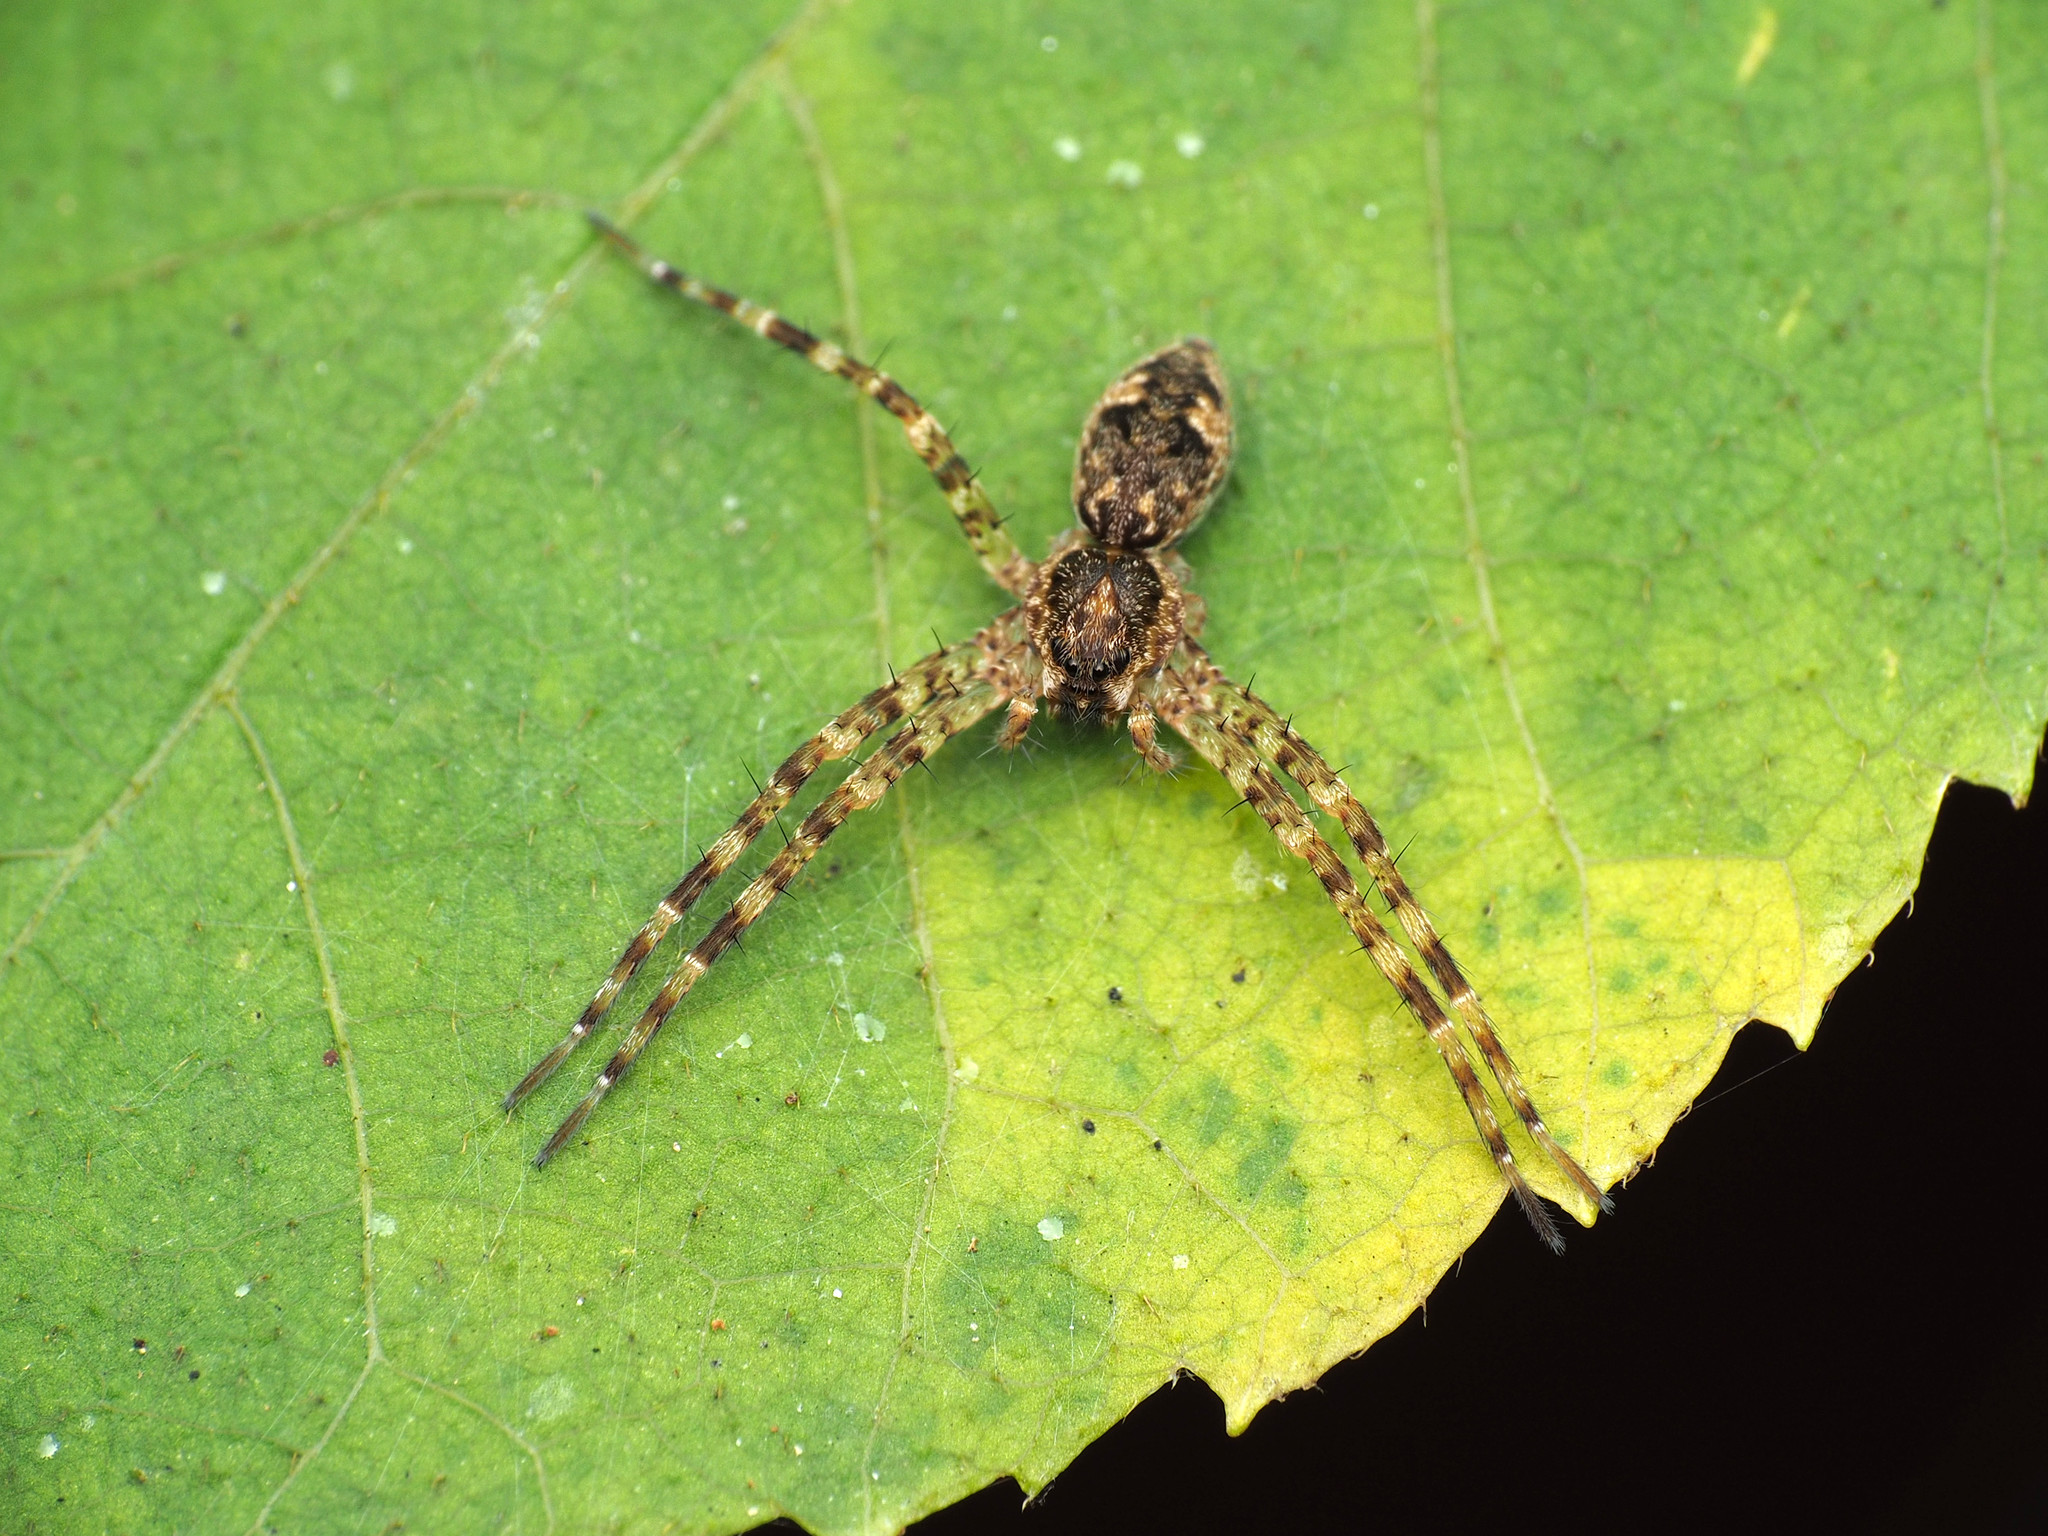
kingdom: Animalia
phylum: Arthropoda
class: Arachnida
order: Araneae
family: Pisauridae
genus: Dolomedes
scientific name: Dolomedes tenebrosus
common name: Dark fishing spider
